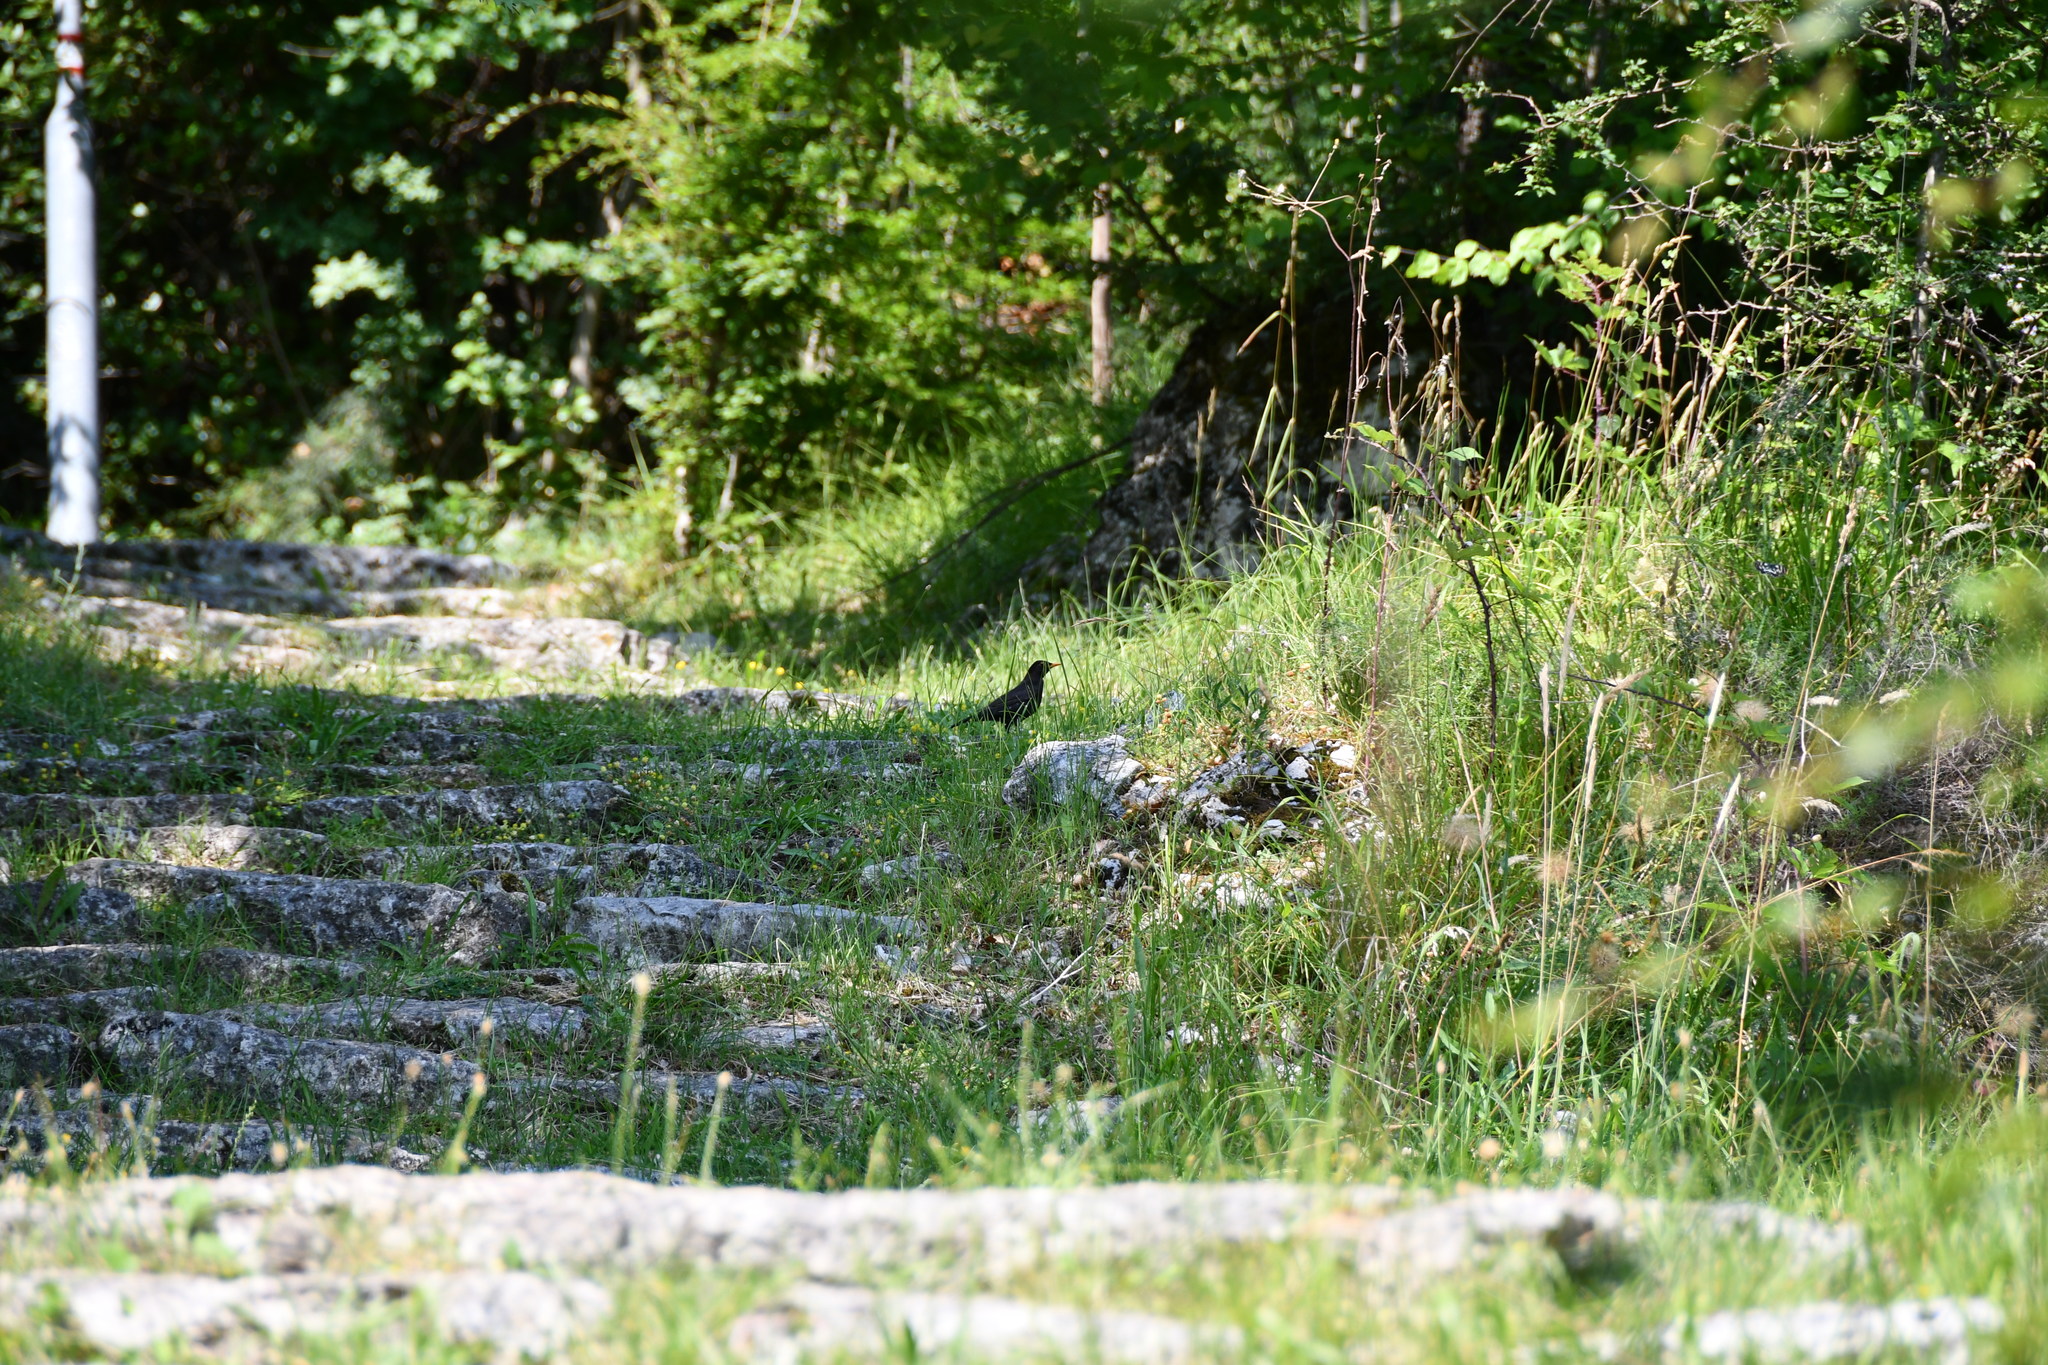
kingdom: Animalia
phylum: Chordata
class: Aves
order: Passeriformes
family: Turdidae
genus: Turdus
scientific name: Turdus merula
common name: Common blackbird
